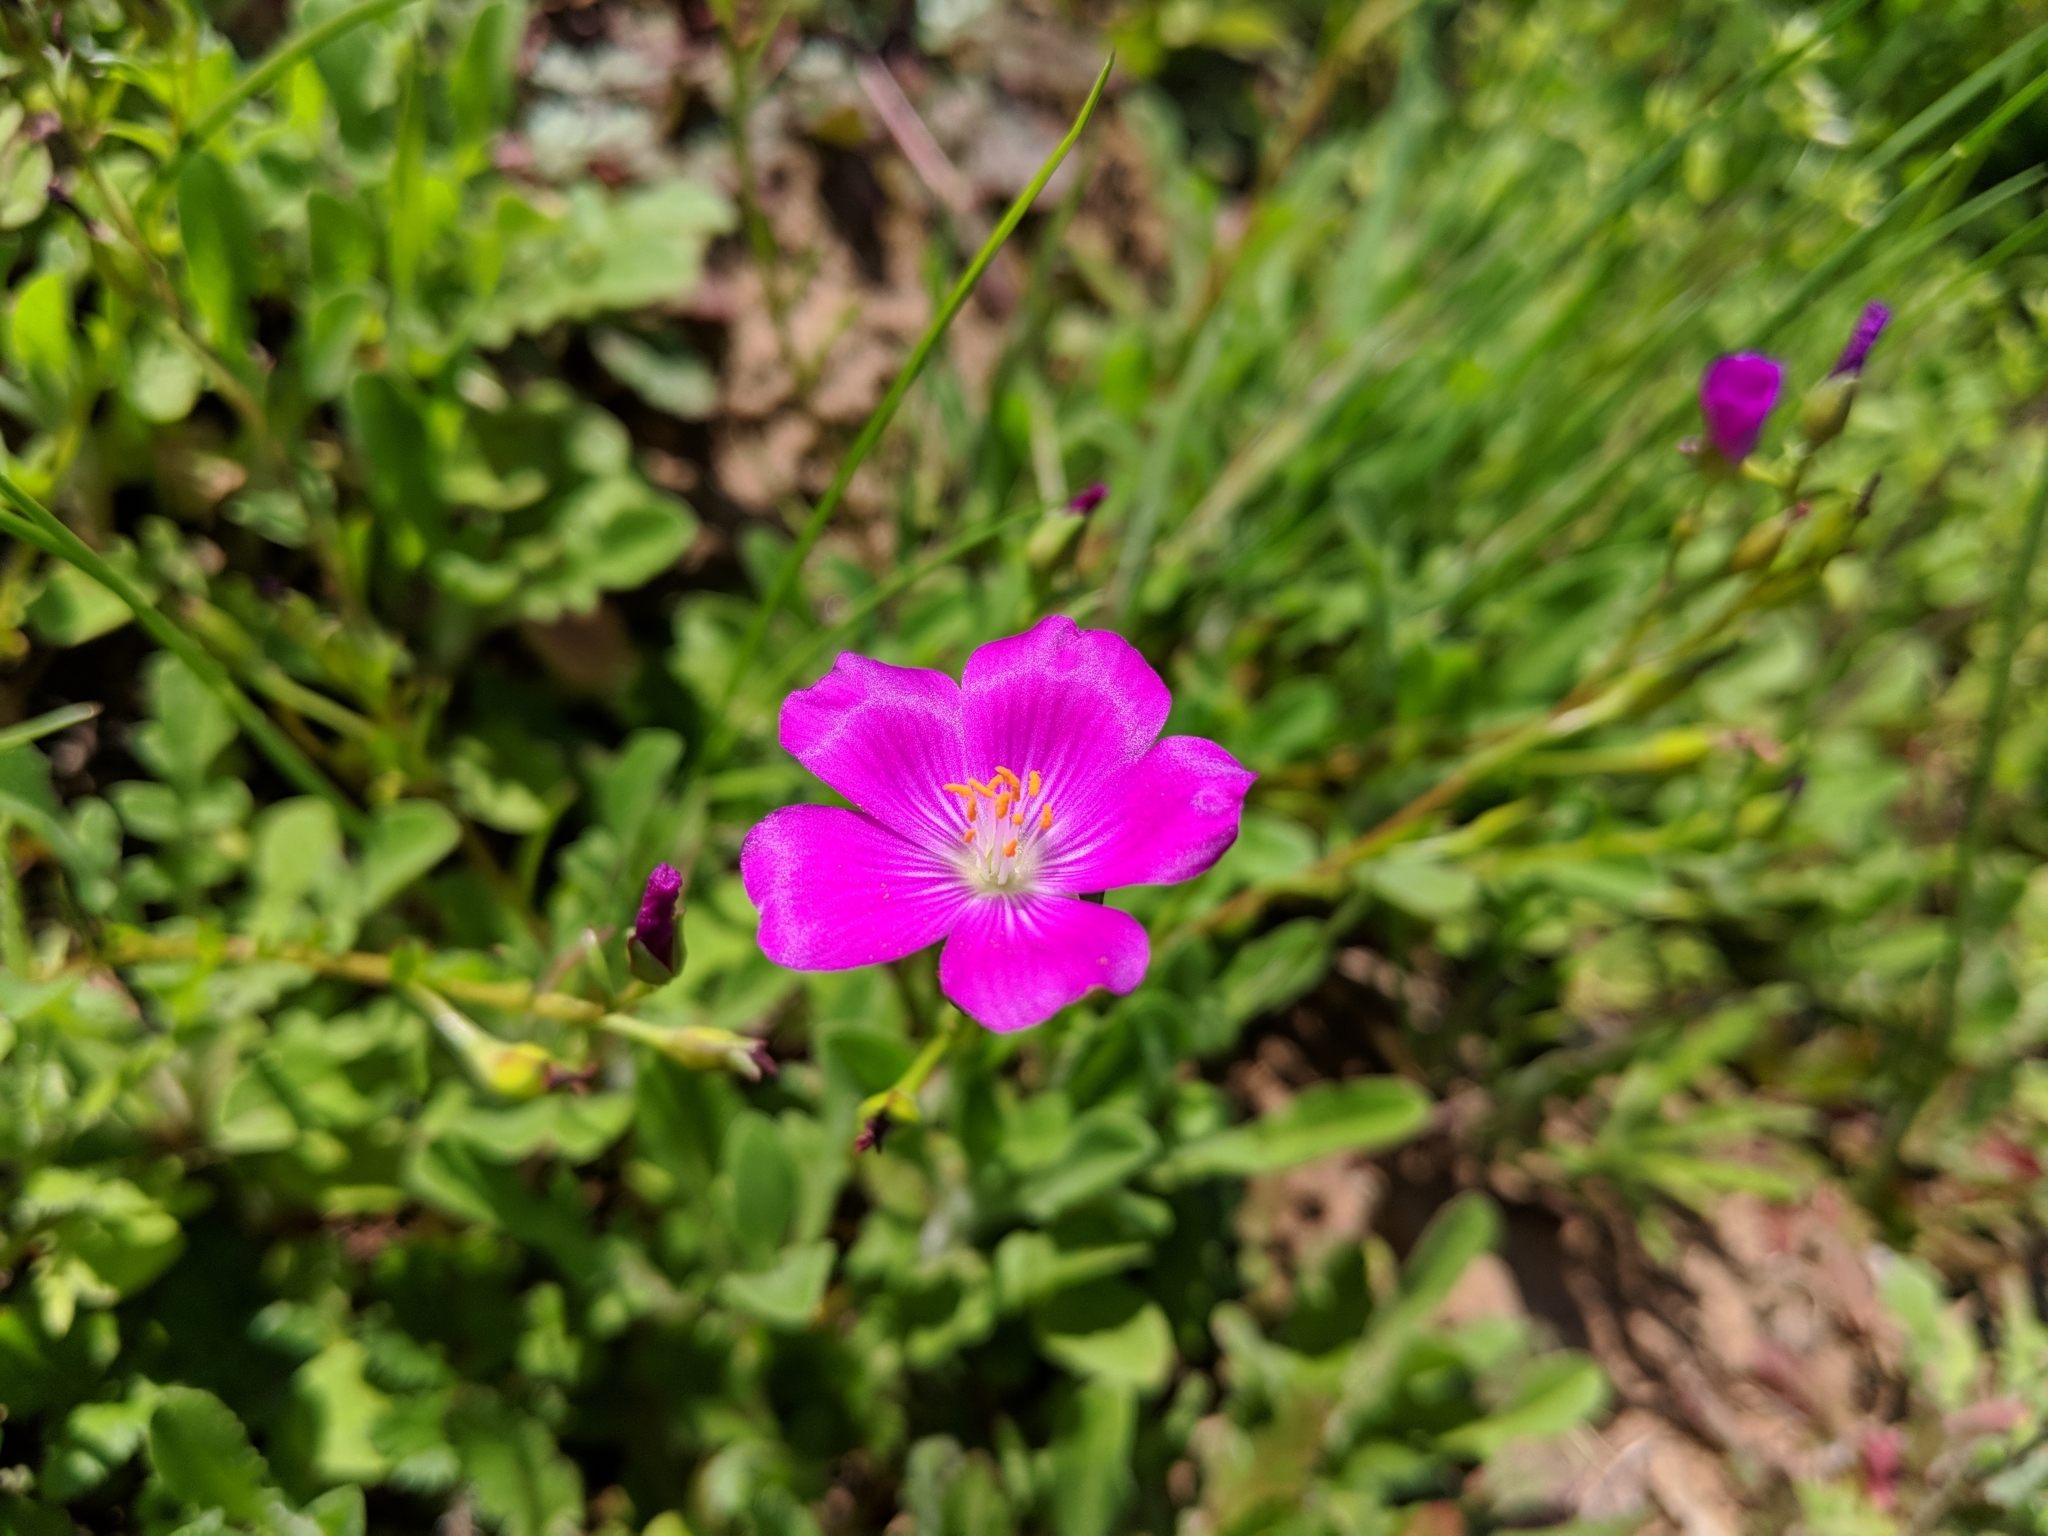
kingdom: Plantae
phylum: Tracheophyta
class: Magnoliopsida
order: Caryophyllales
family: Montiaceae
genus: Calandrinia
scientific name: Calandrinia menziesii
